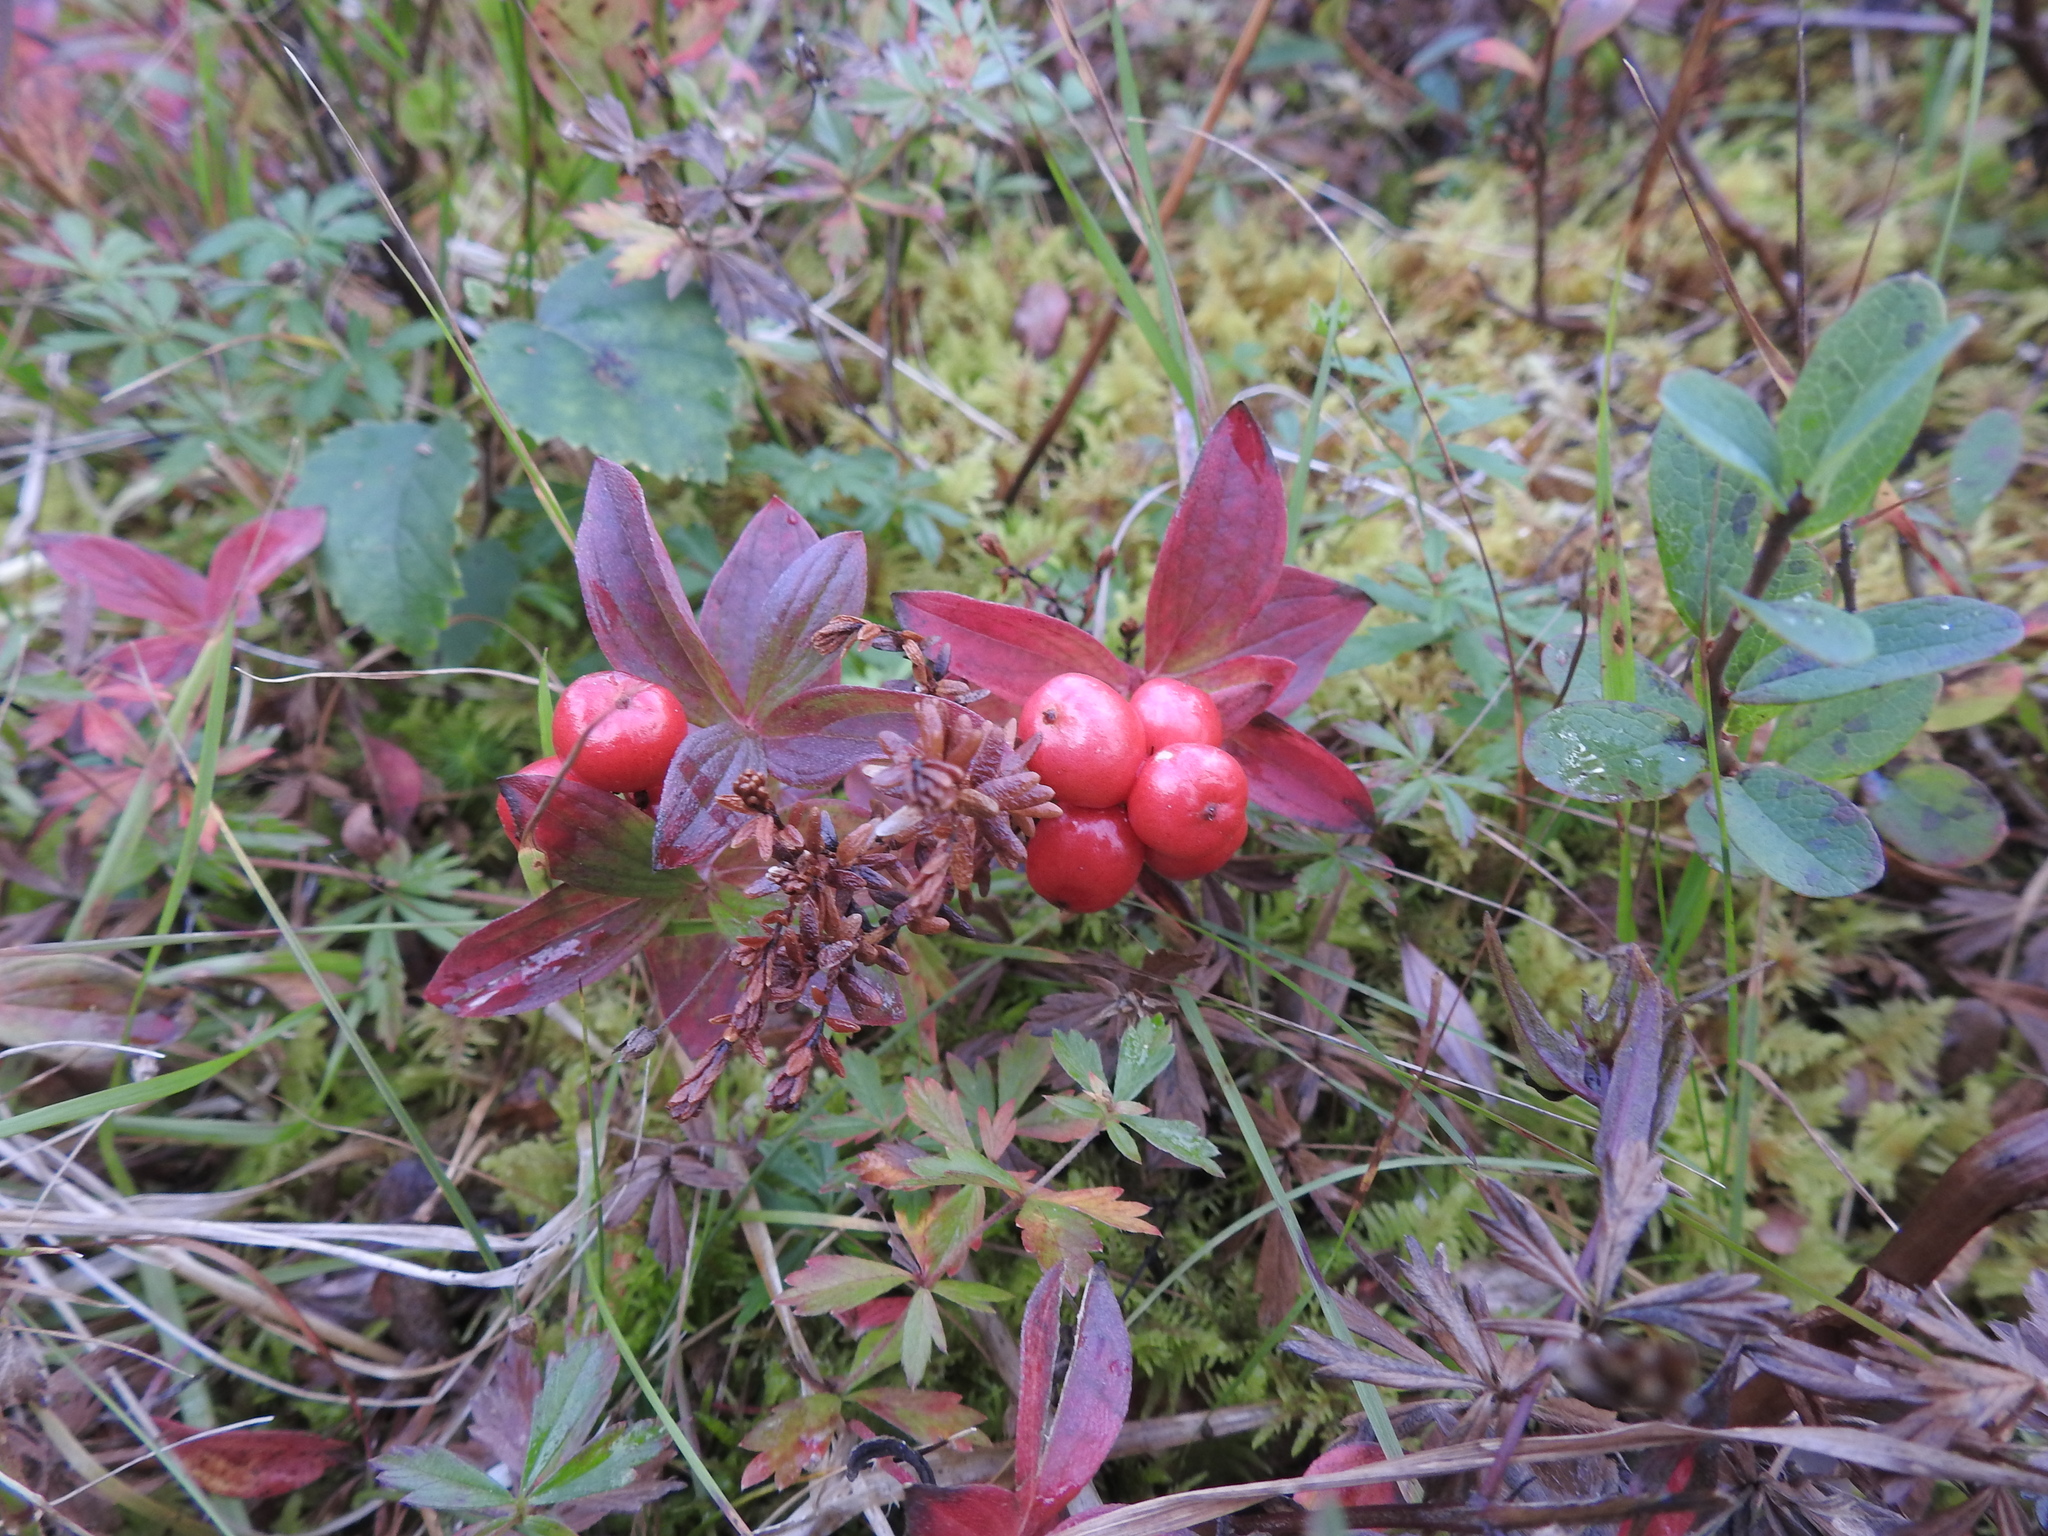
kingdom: Plantae
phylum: Tracheophyta
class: Magnoliopsida
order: Cornales
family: Cornaceae
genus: Cornus
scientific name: Cornus suecica
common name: Dwarf cornel
